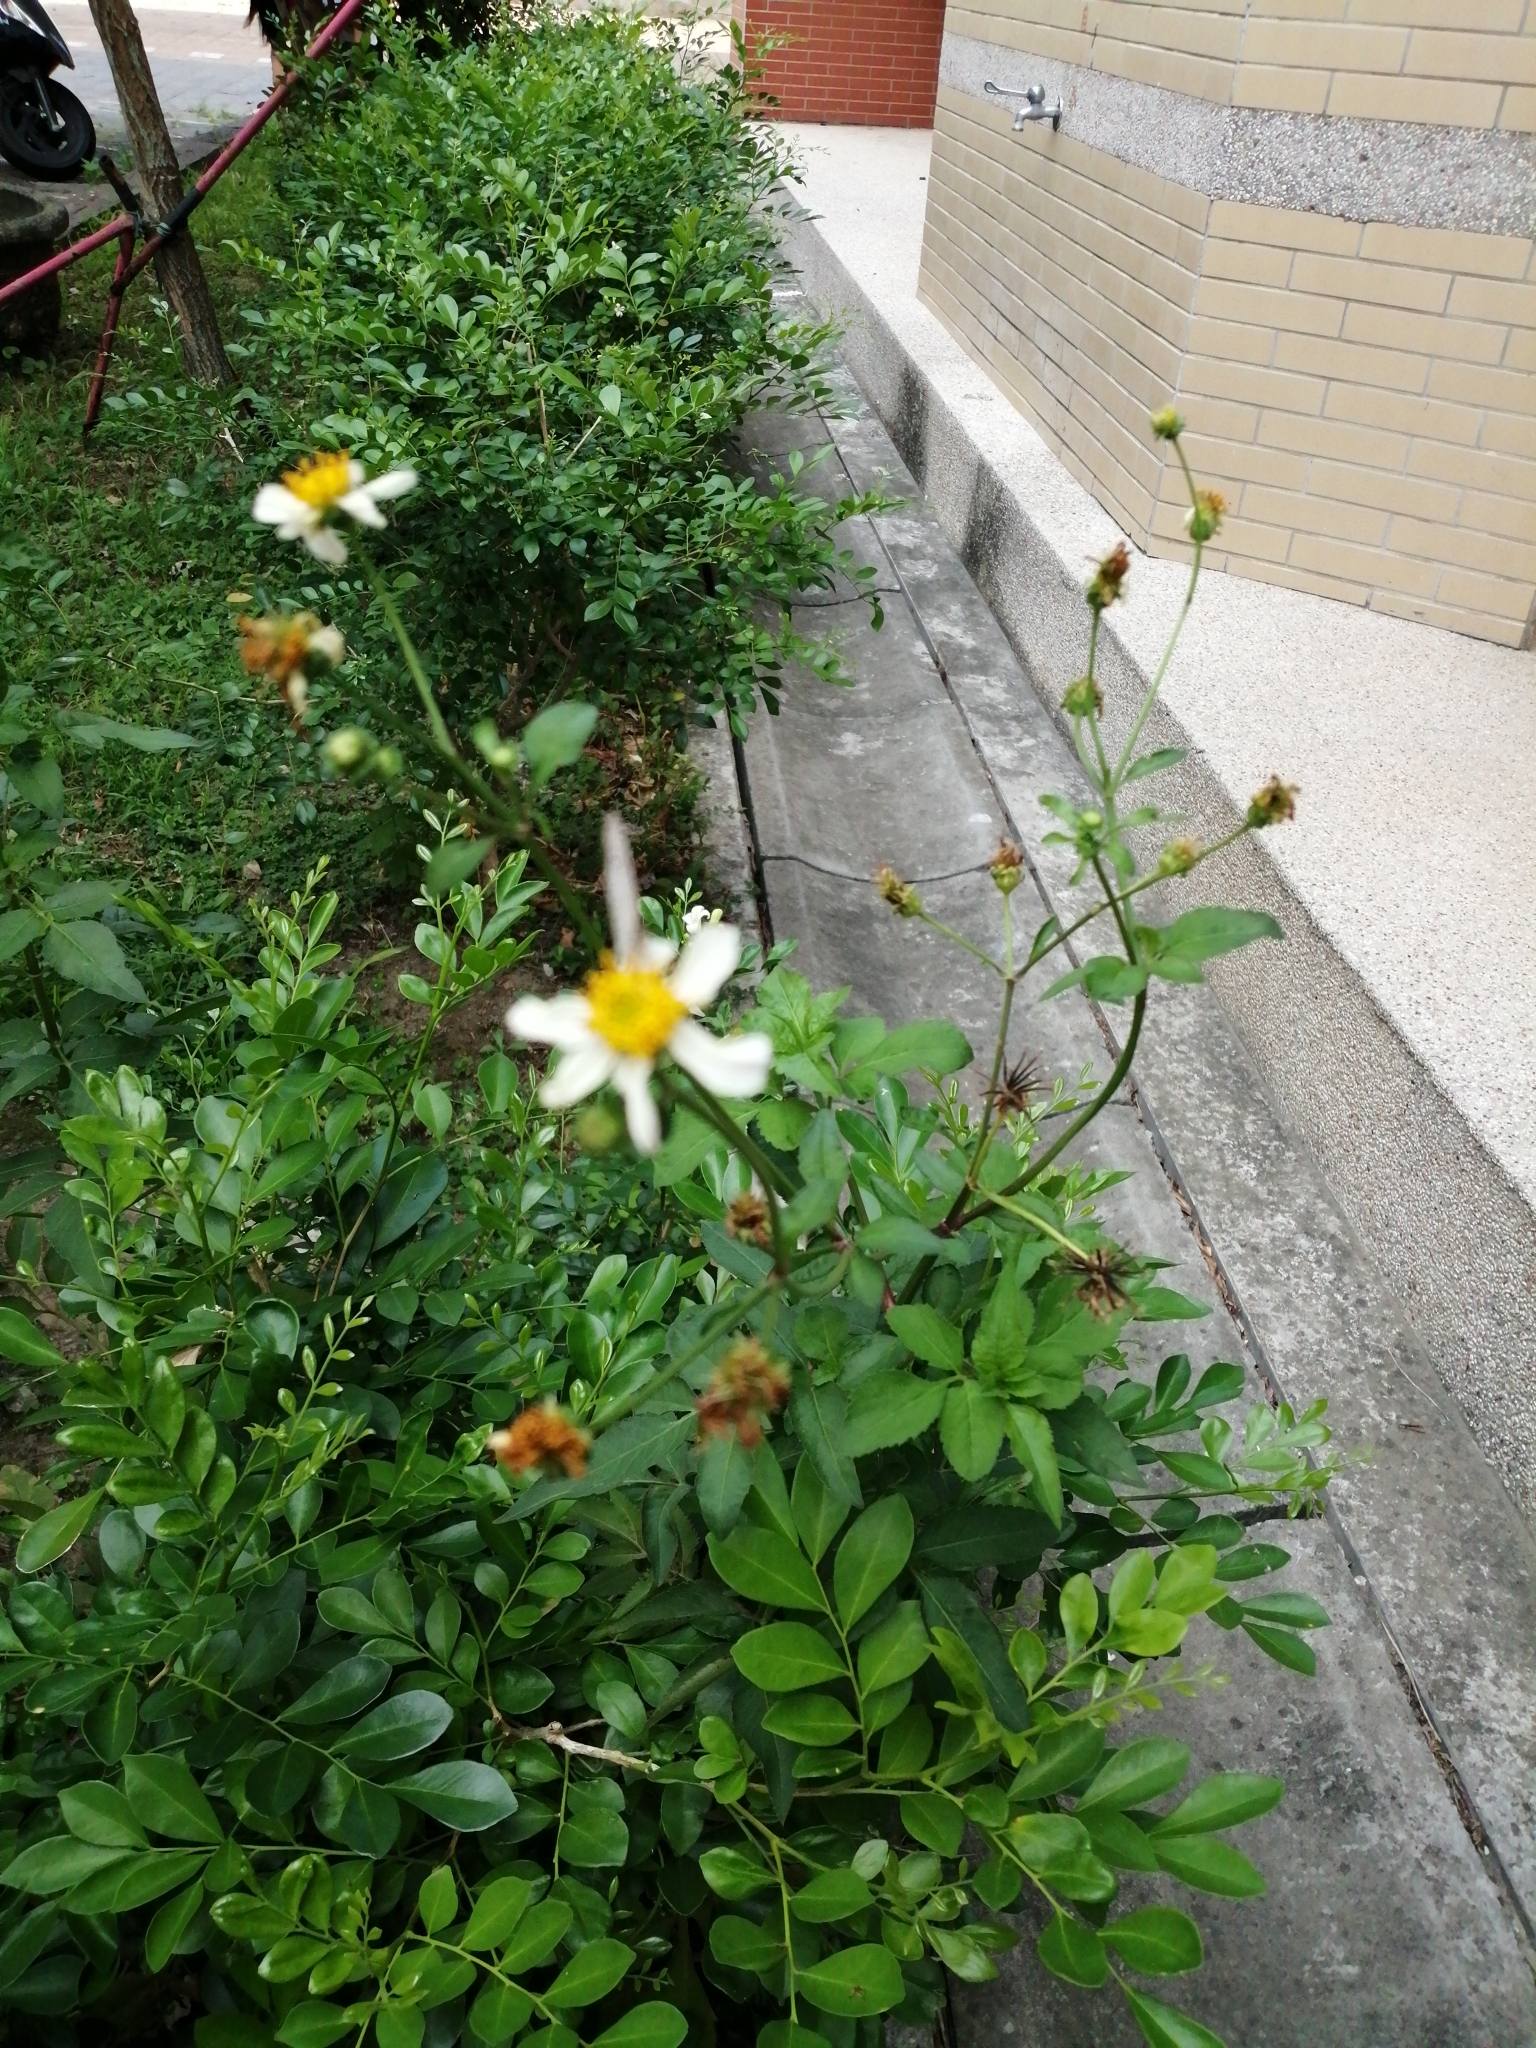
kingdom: Animalia
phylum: Arthropoda
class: Insecta
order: Lepidoptera
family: Lycaenidae
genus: Pseudozizeeria
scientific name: Pseudozizeeria maha
